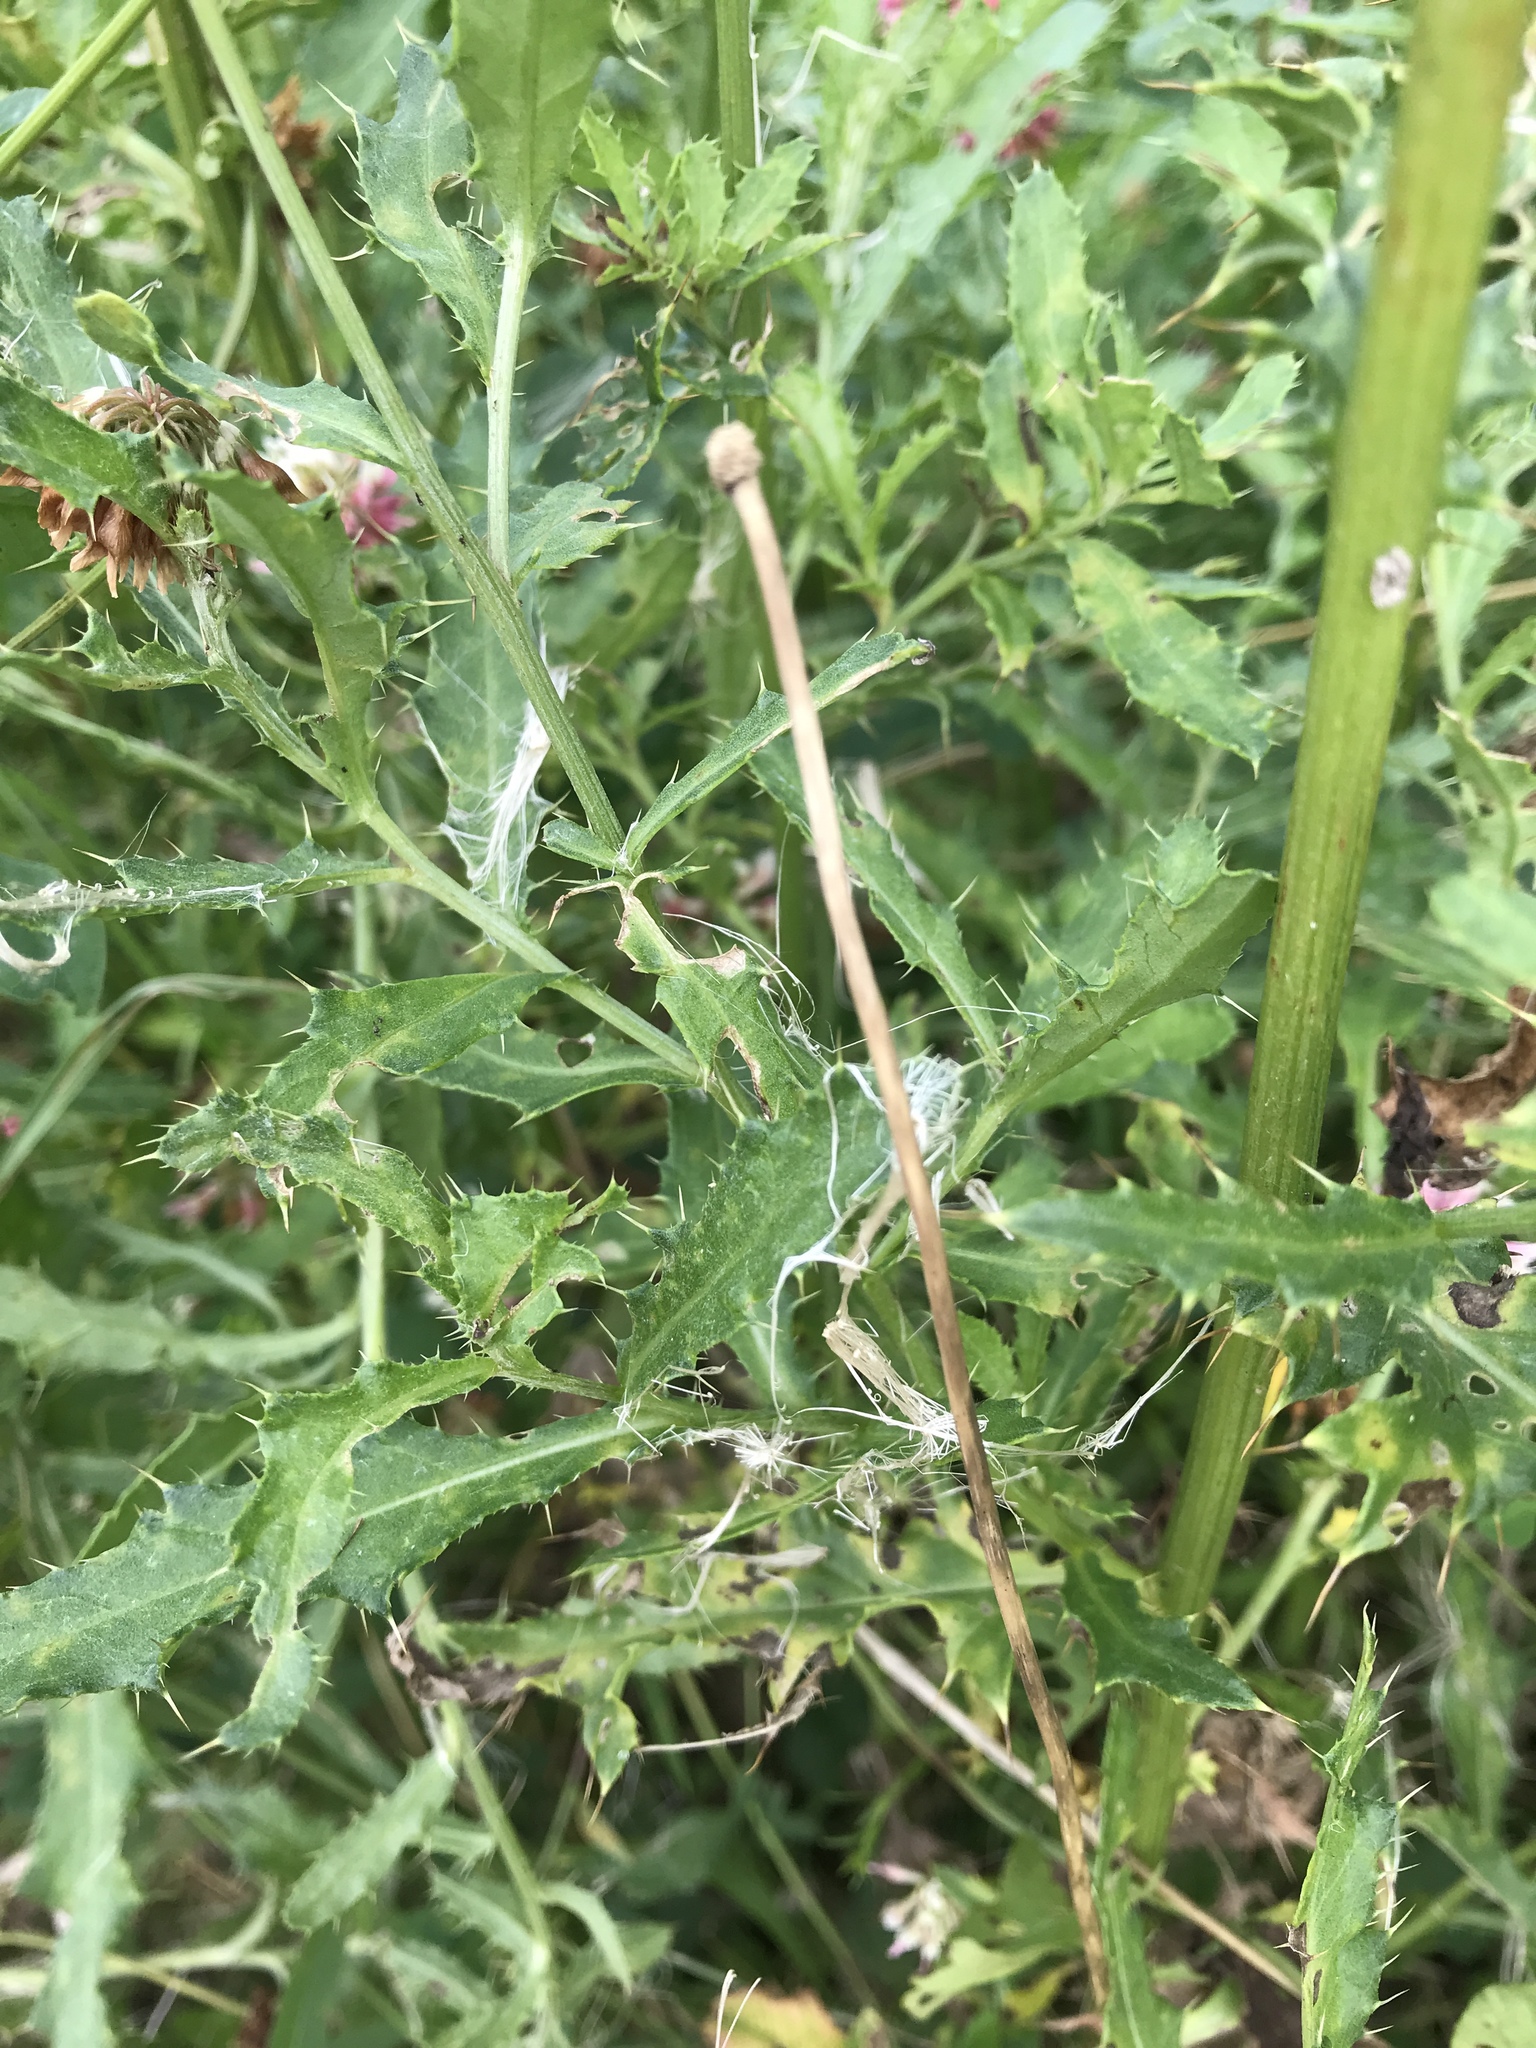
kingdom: Plantae
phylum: Tracheophyta
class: Magnoliopsida
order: Asterales
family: Asteraceae
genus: Cirsium
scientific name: Cirsium arvense
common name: Creeping thistle
